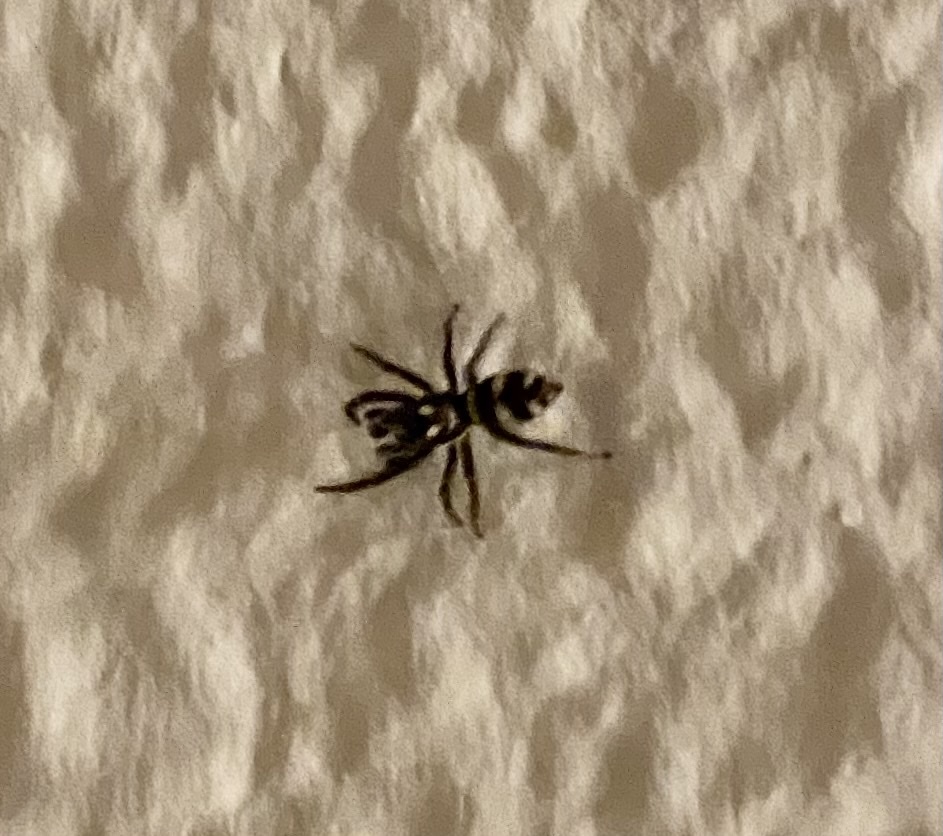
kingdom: Animalia
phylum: Arthropoda
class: Arachnida
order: Araneae
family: Salticidae
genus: Salticus
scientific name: Salticus scenicus
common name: Zebra jumper
